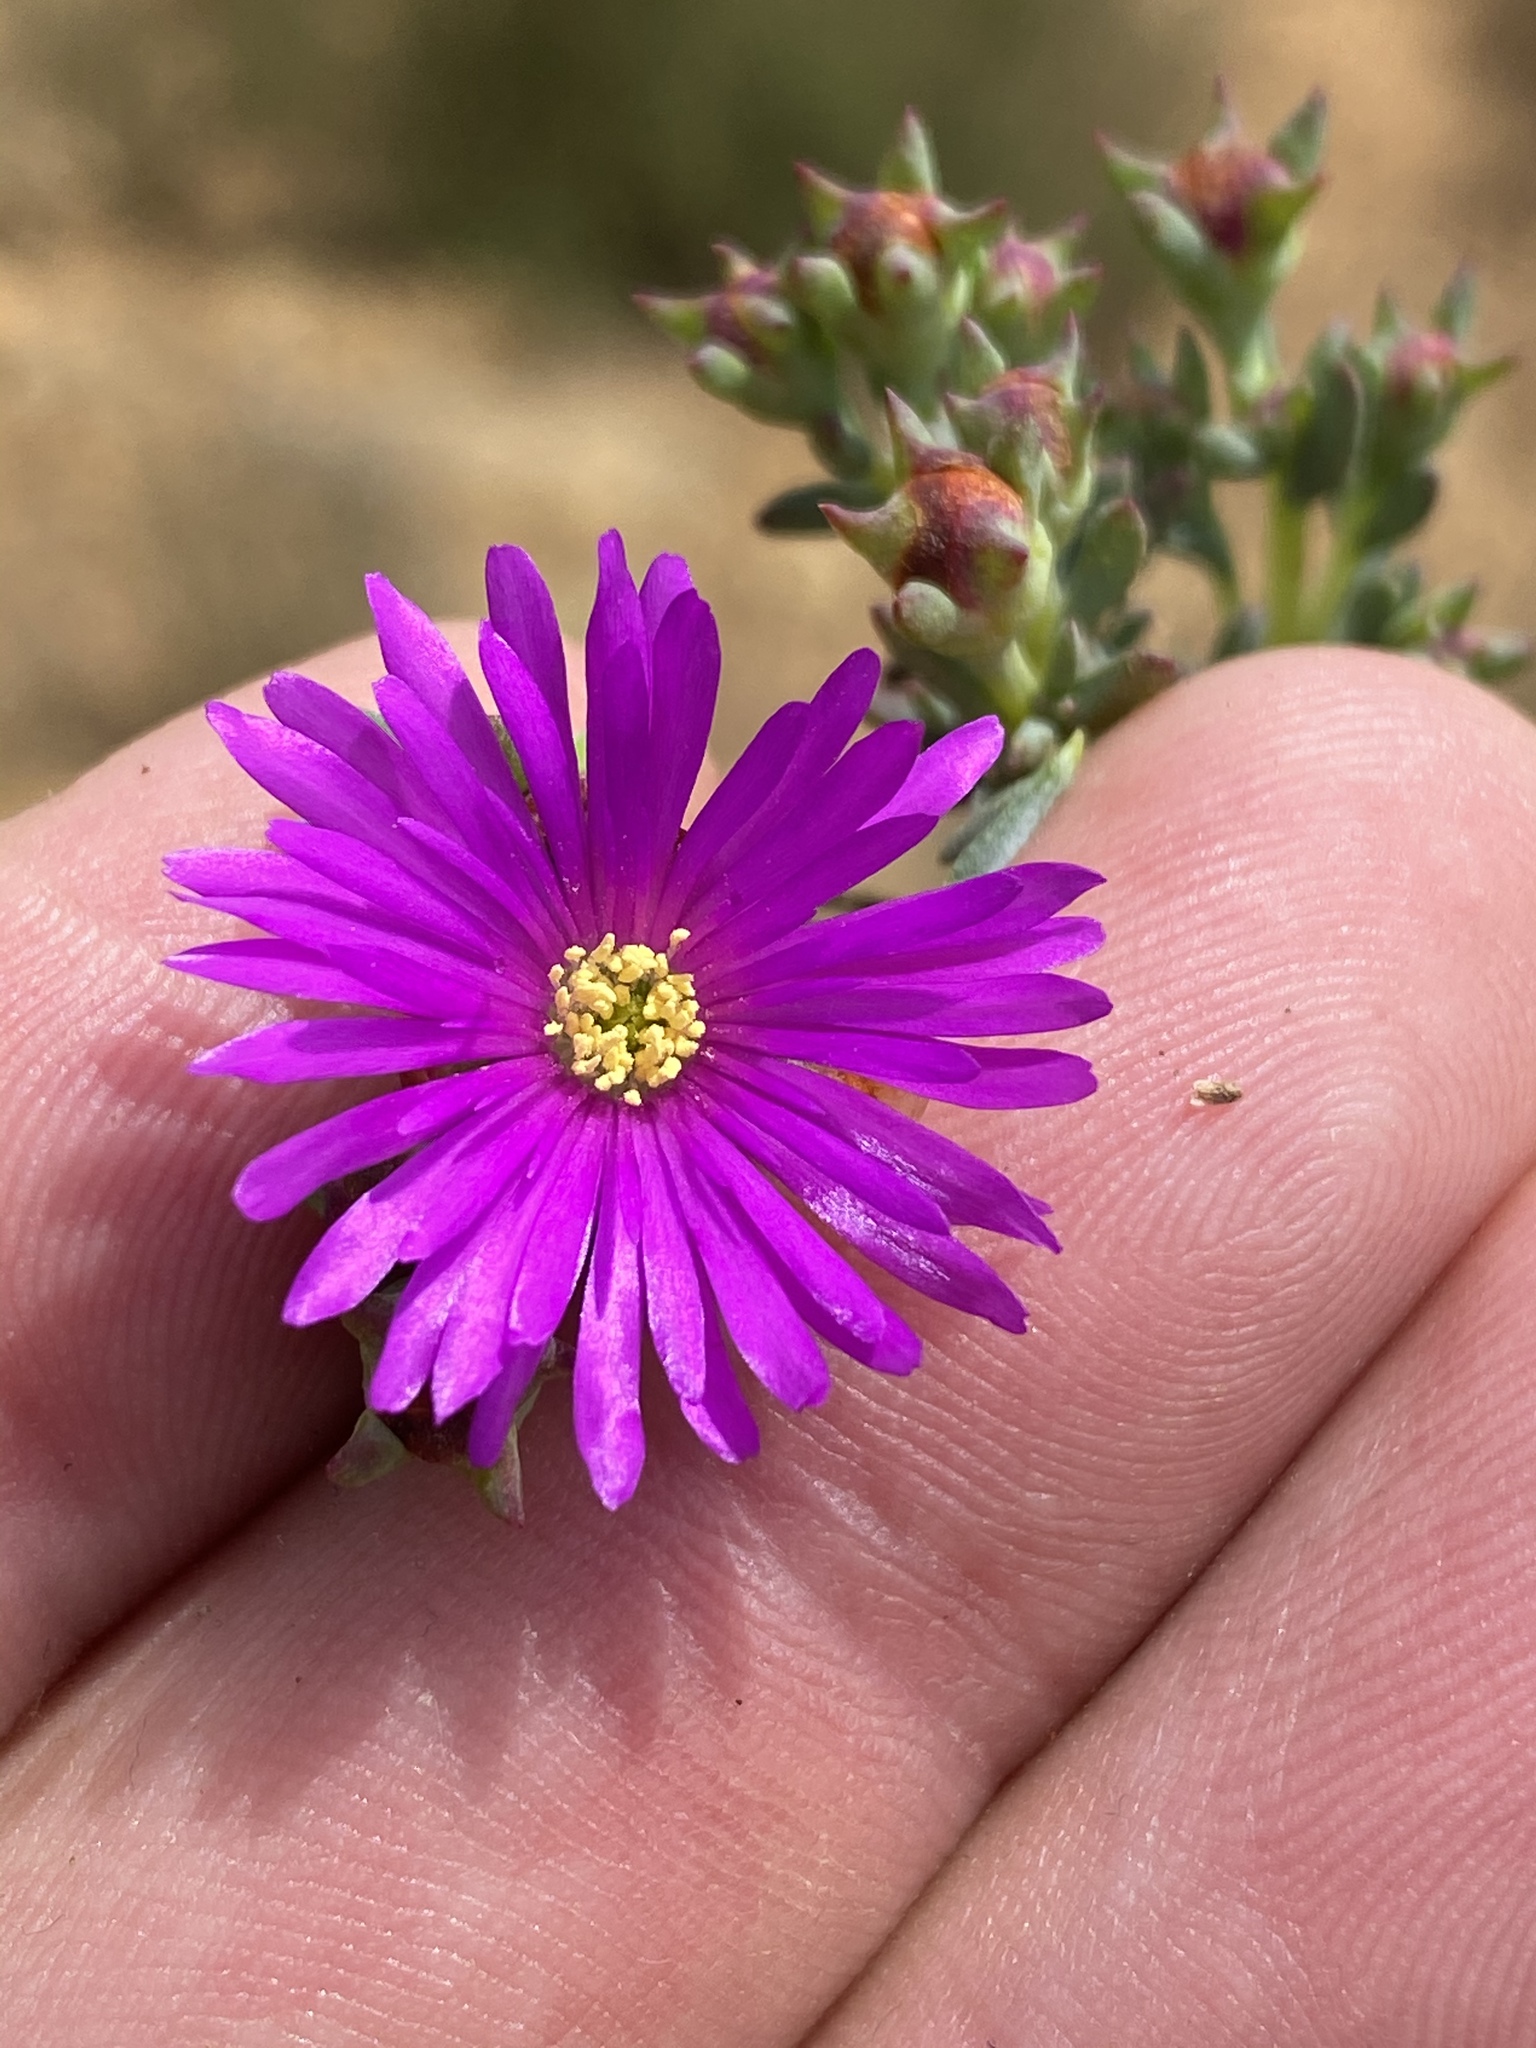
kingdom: Plantae
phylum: Tracheophyta
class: Magnoliopsida
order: Caryophyllales
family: Aizoaceae
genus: Lampranthus
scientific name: Lampranthus emarginatus
